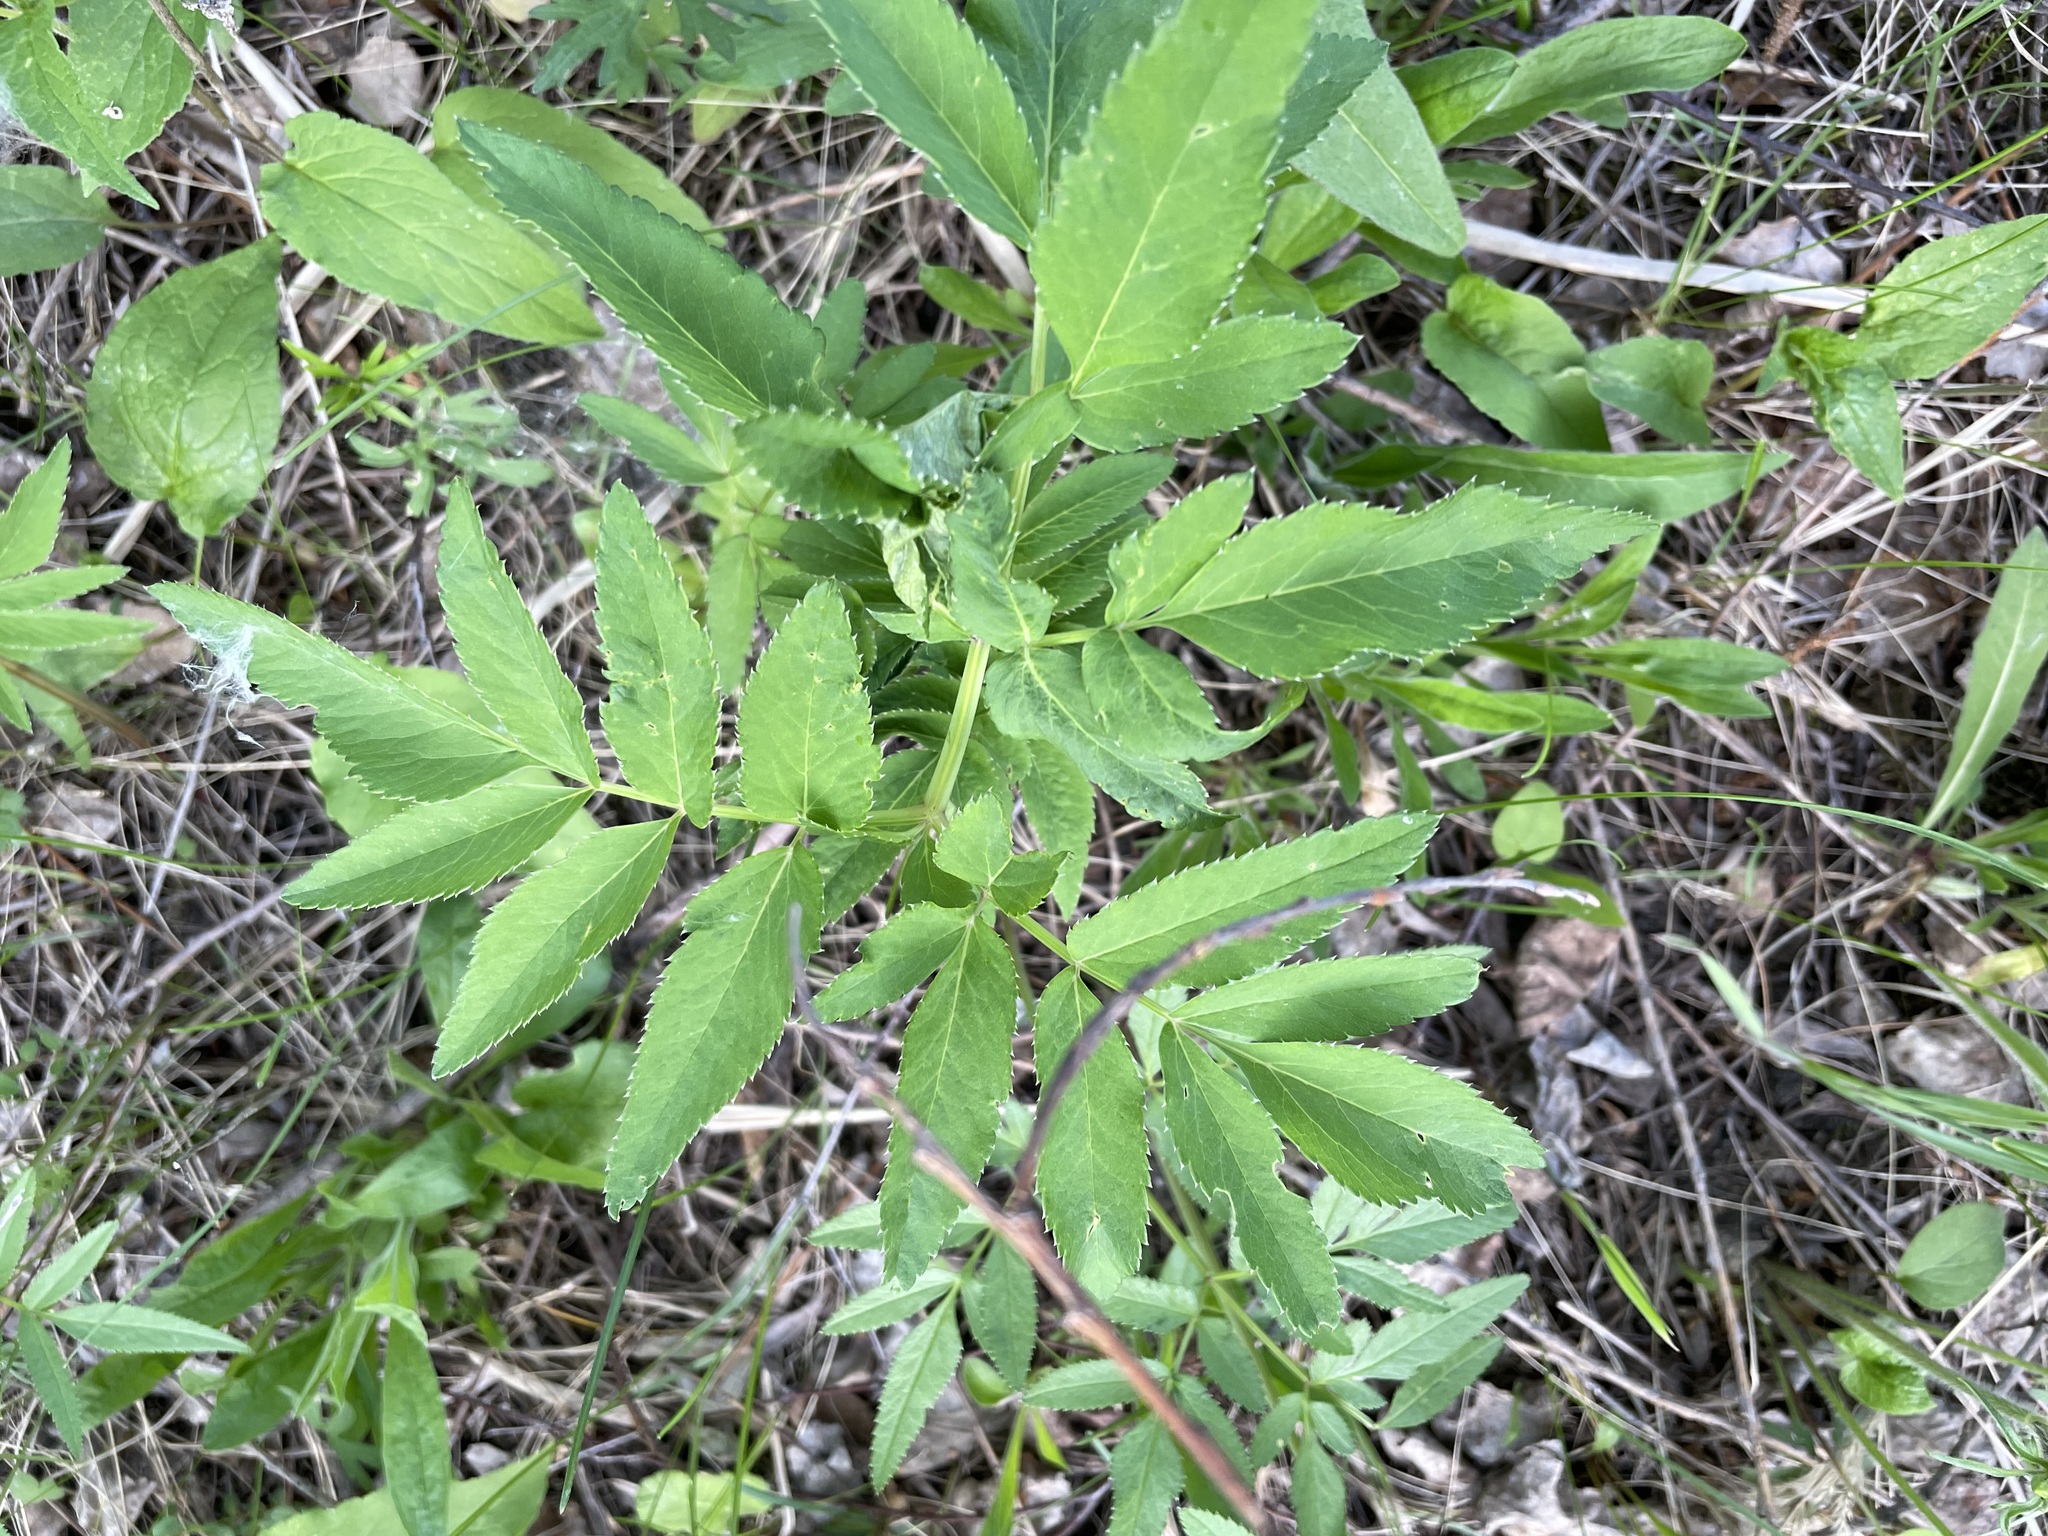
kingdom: Plantae
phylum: Tracheophyta
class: Magnoliopsida
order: Apiales
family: Apiaceae
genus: Angelica
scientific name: Angelica sylvestris
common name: Wild angelica
